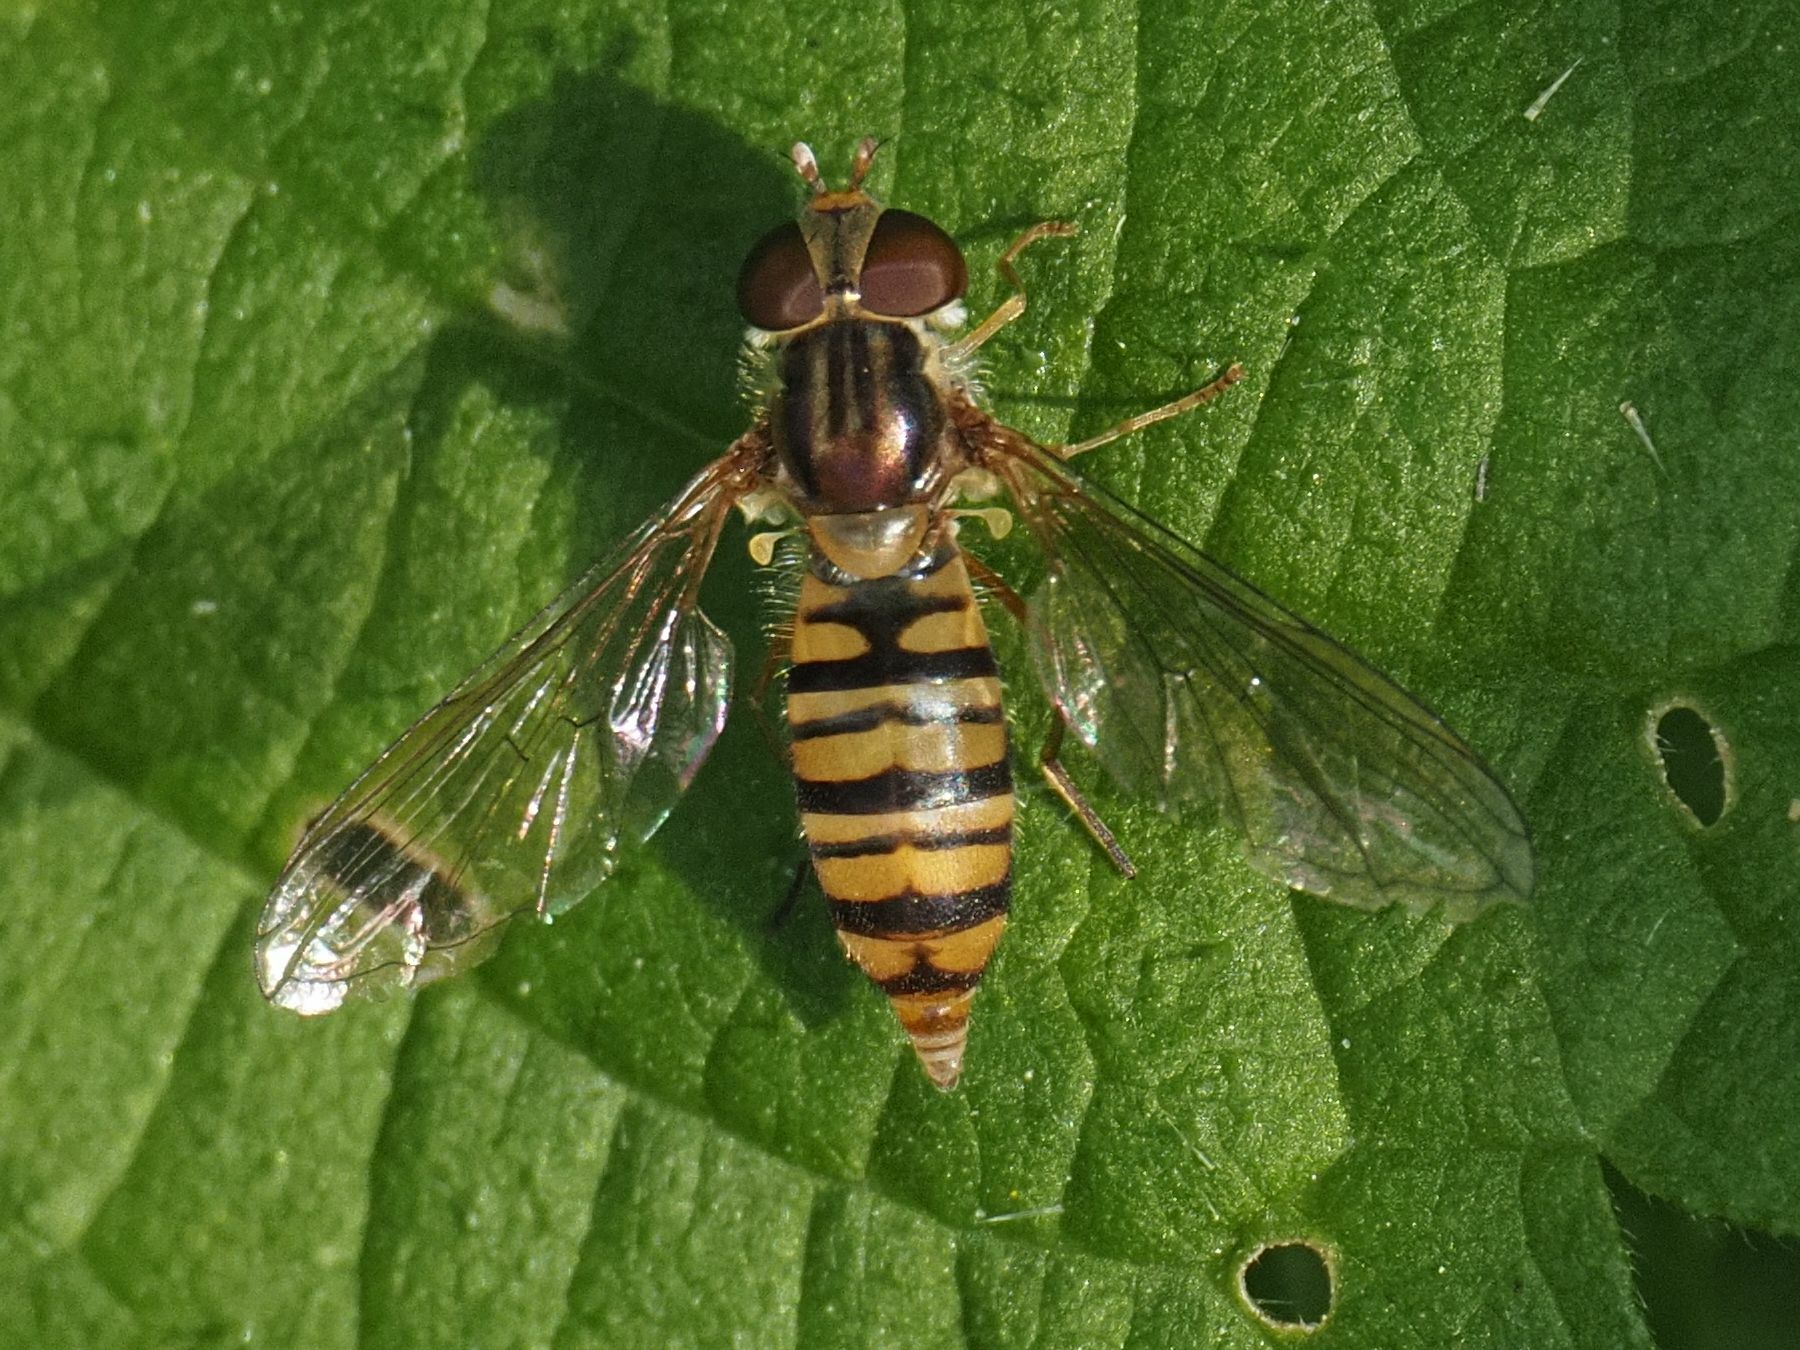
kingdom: Animalia
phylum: Arthropoda
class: Insecta
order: Diptera
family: Syrphidae
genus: Episyrphus
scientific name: Episyrphus balteatus
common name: Marmalade hoverfly
